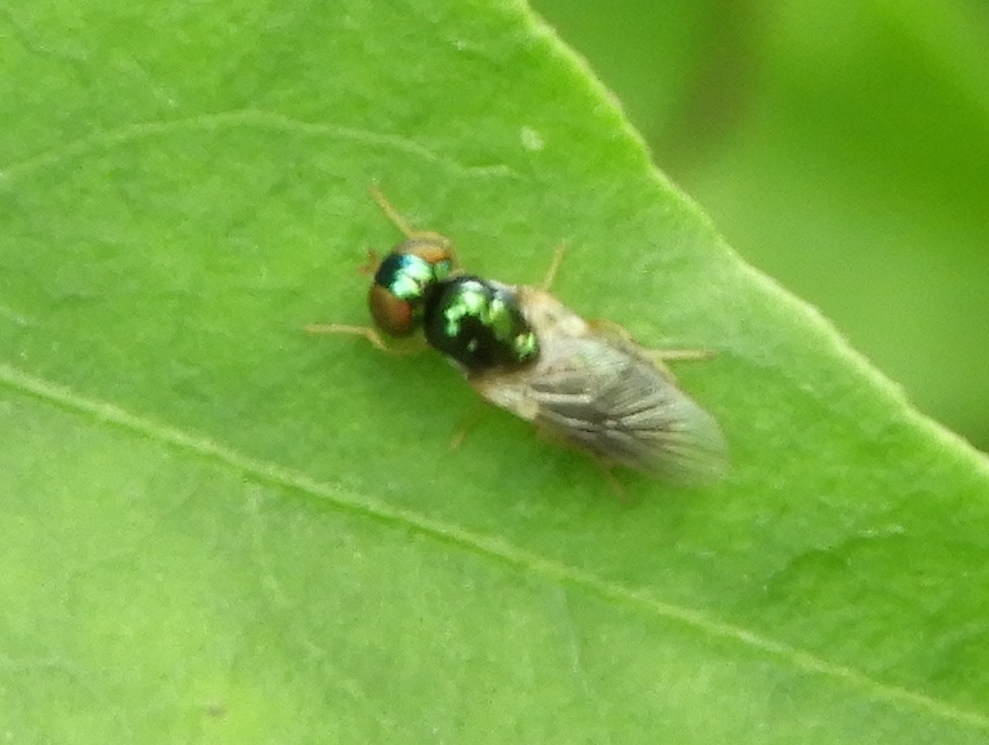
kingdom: Animalia
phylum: Arthropoda
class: Insecta
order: Diptera
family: Stratiomyidae
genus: Microchrysa
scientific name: Microchrysa
